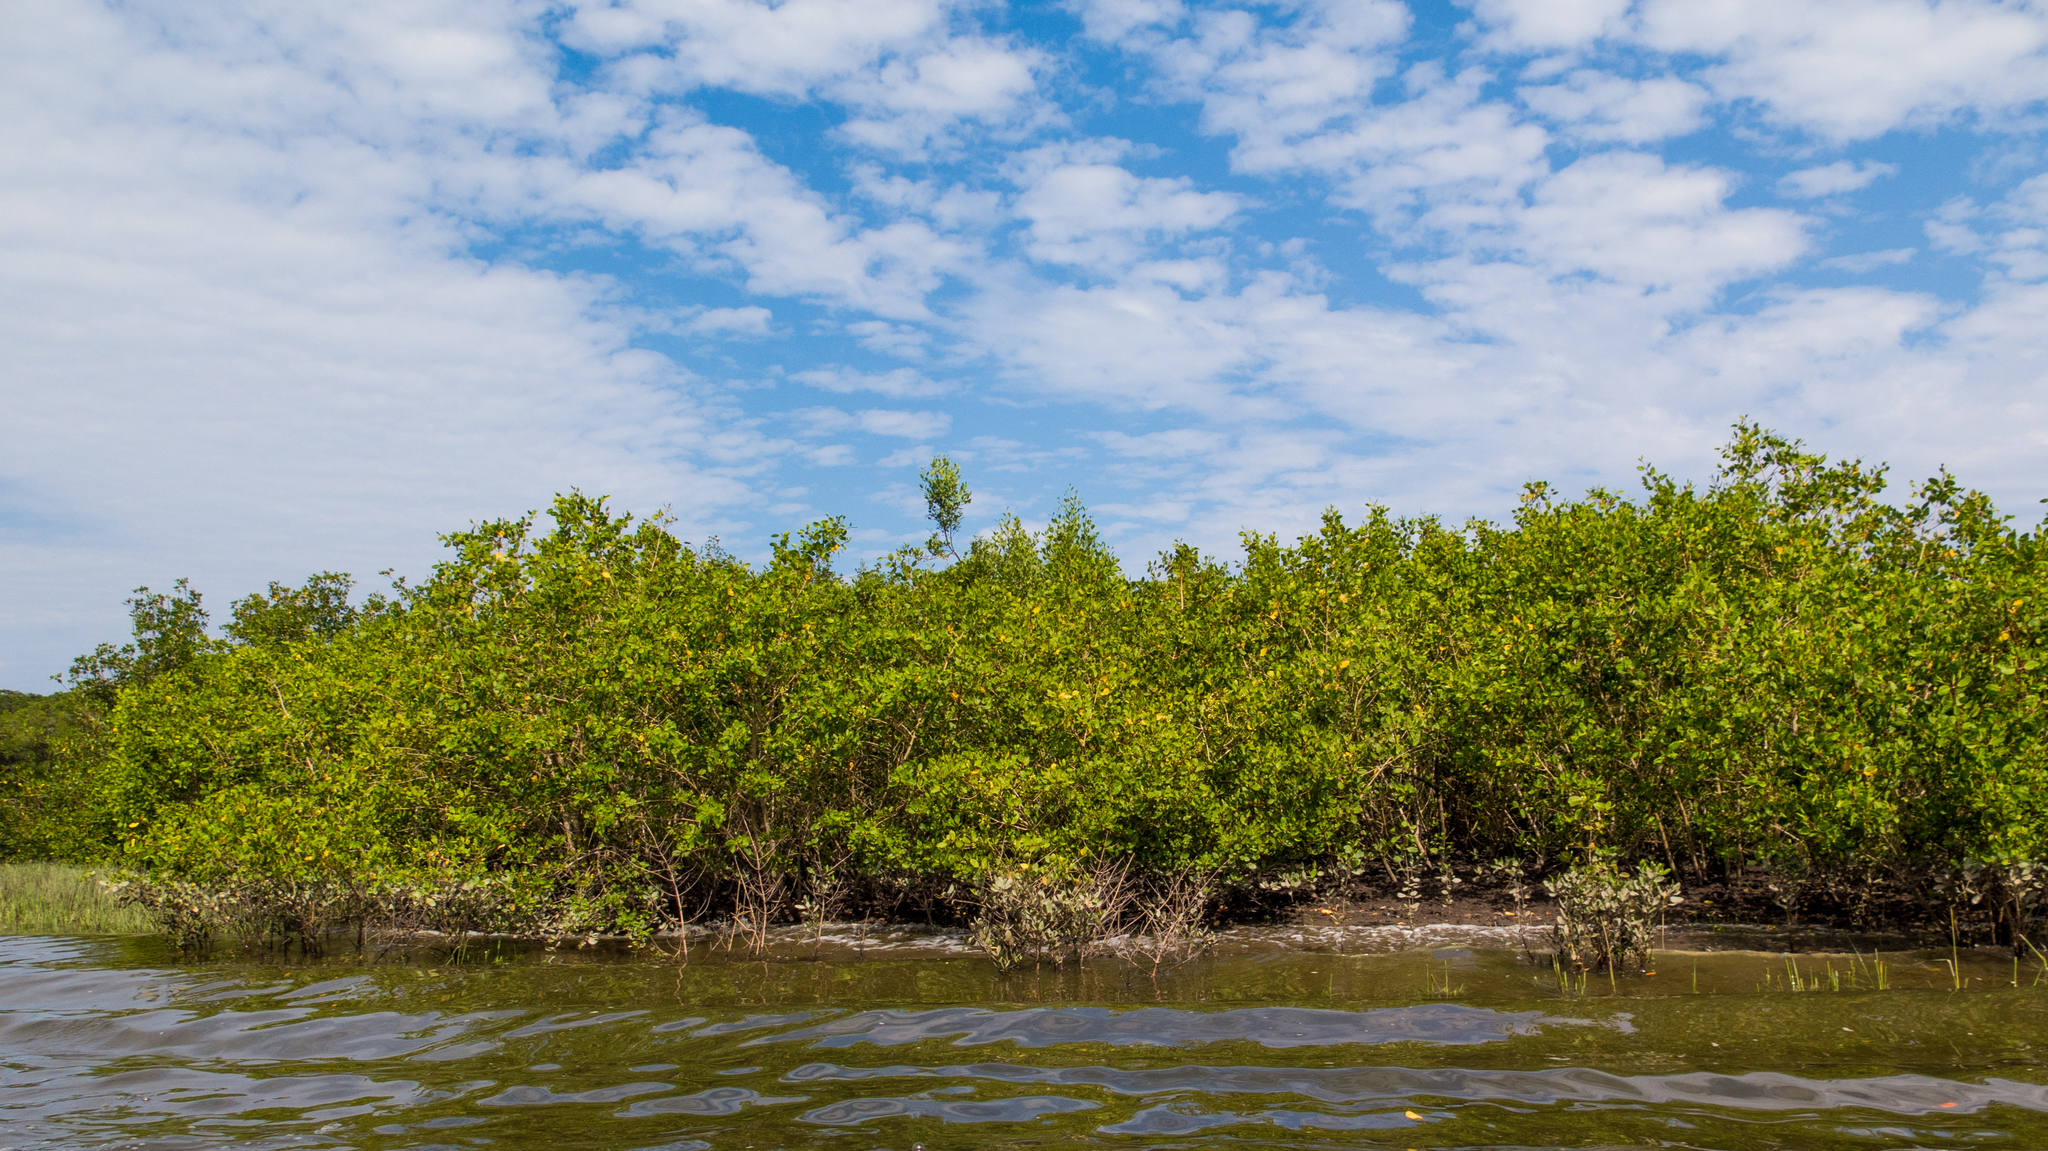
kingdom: Plantae
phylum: Tracheophyta
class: Magnoliopsida
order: Malpighiales
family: Rhizophoraceae
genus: Rhizophora
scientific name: Rhizophora mangle
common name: Red mangrove
